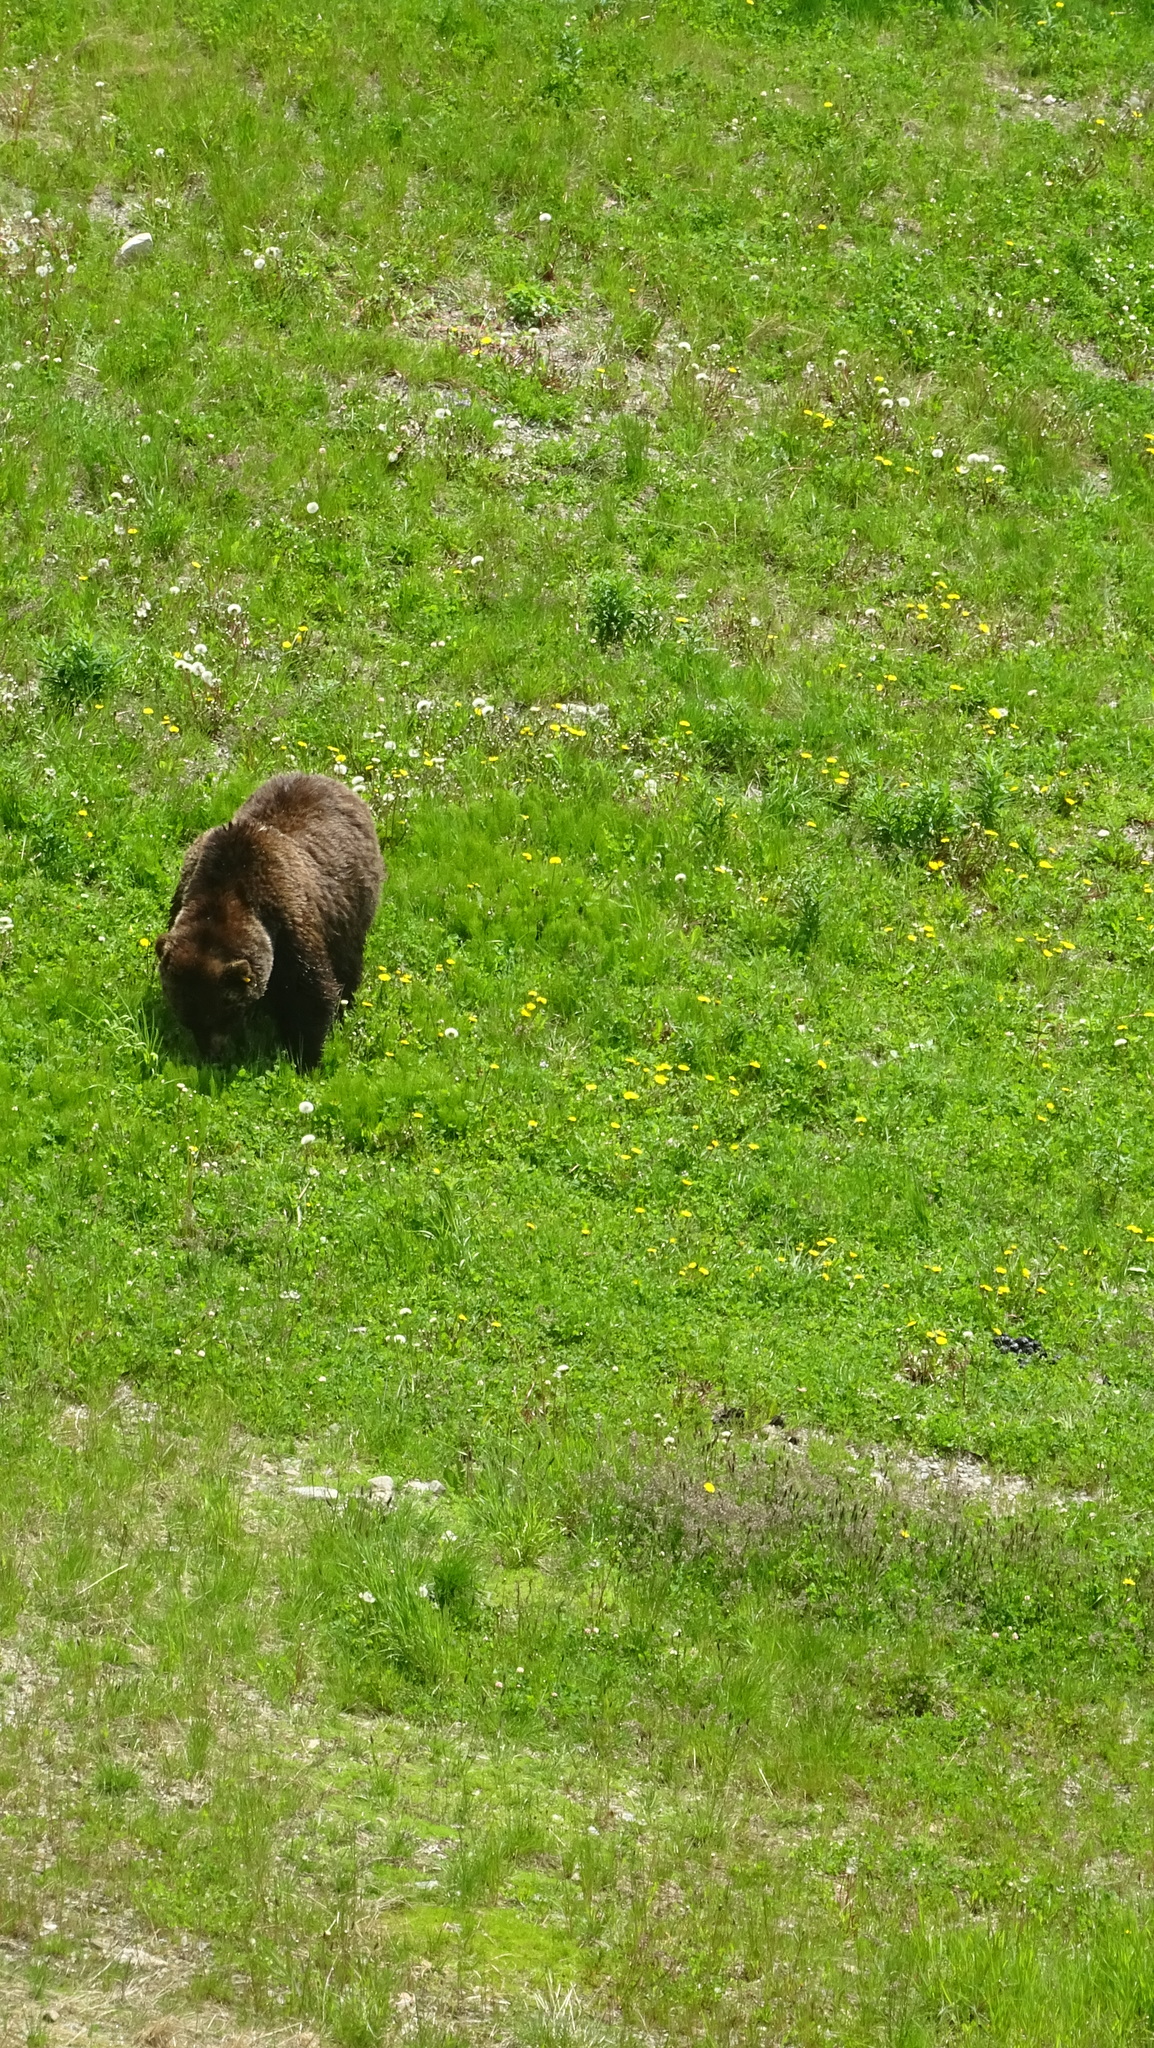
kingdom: Animalia
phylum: Chordata
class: Mammalia
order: Carnivora
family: Ursidae
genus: Ursus
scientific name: Ursus arctos
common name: Brown bear
